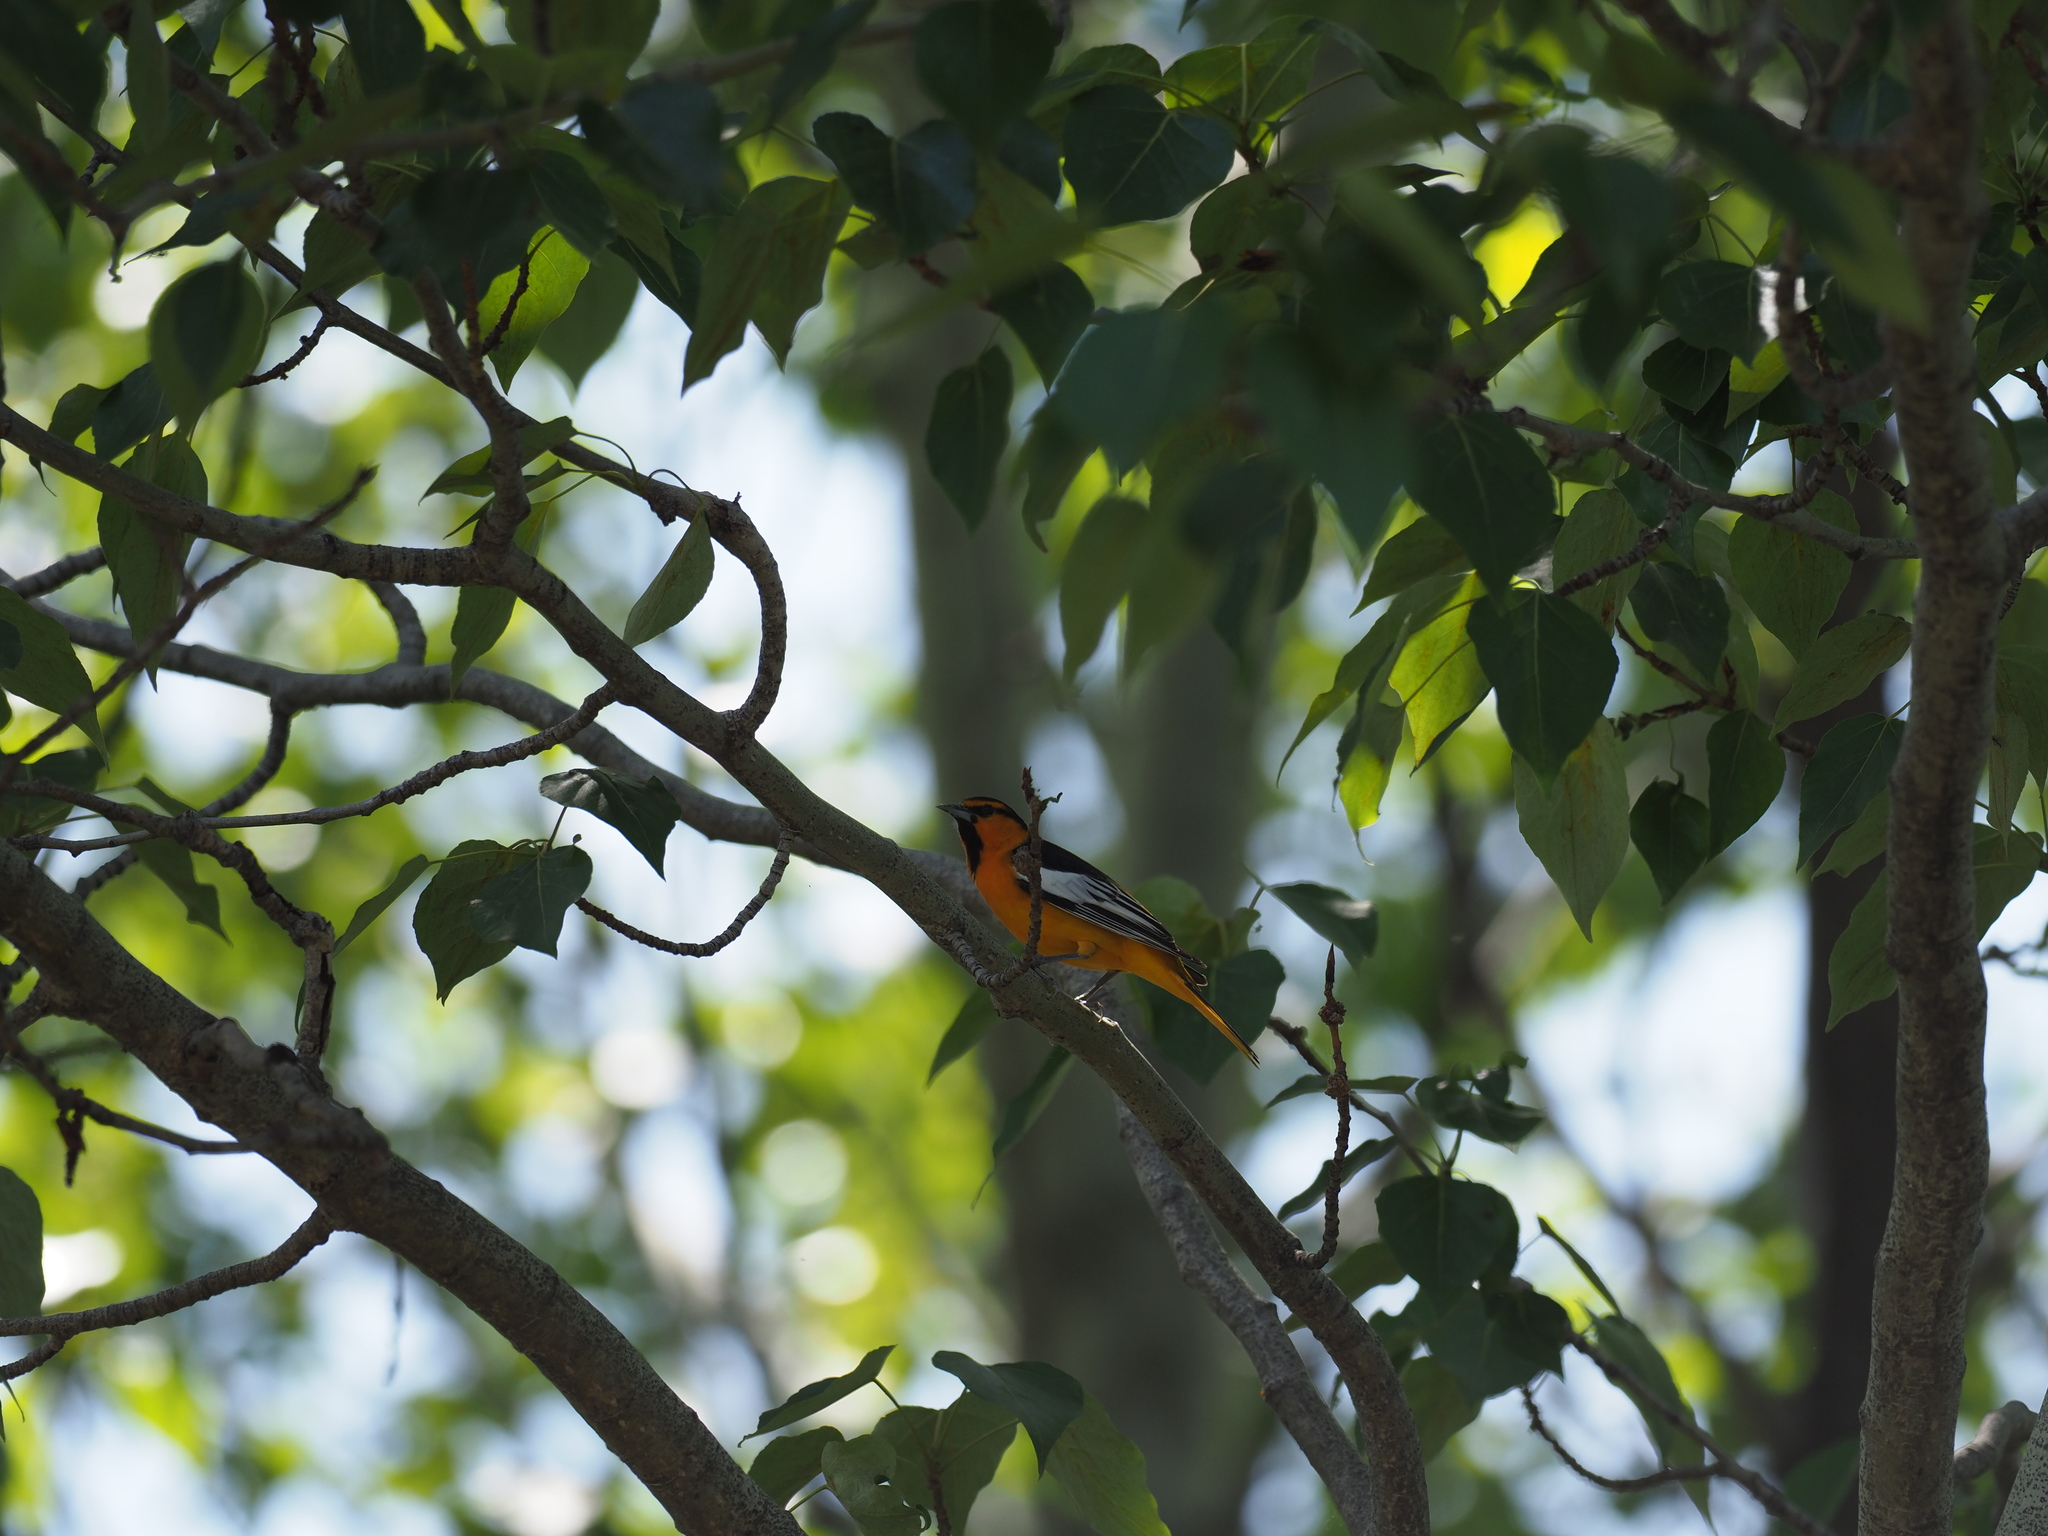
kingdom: Animalia
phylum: Chordata
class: Aves
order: Passeriformes
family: Icteridae
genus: Icterus
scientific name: Icterus bullockii
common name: Bullock's oriole
